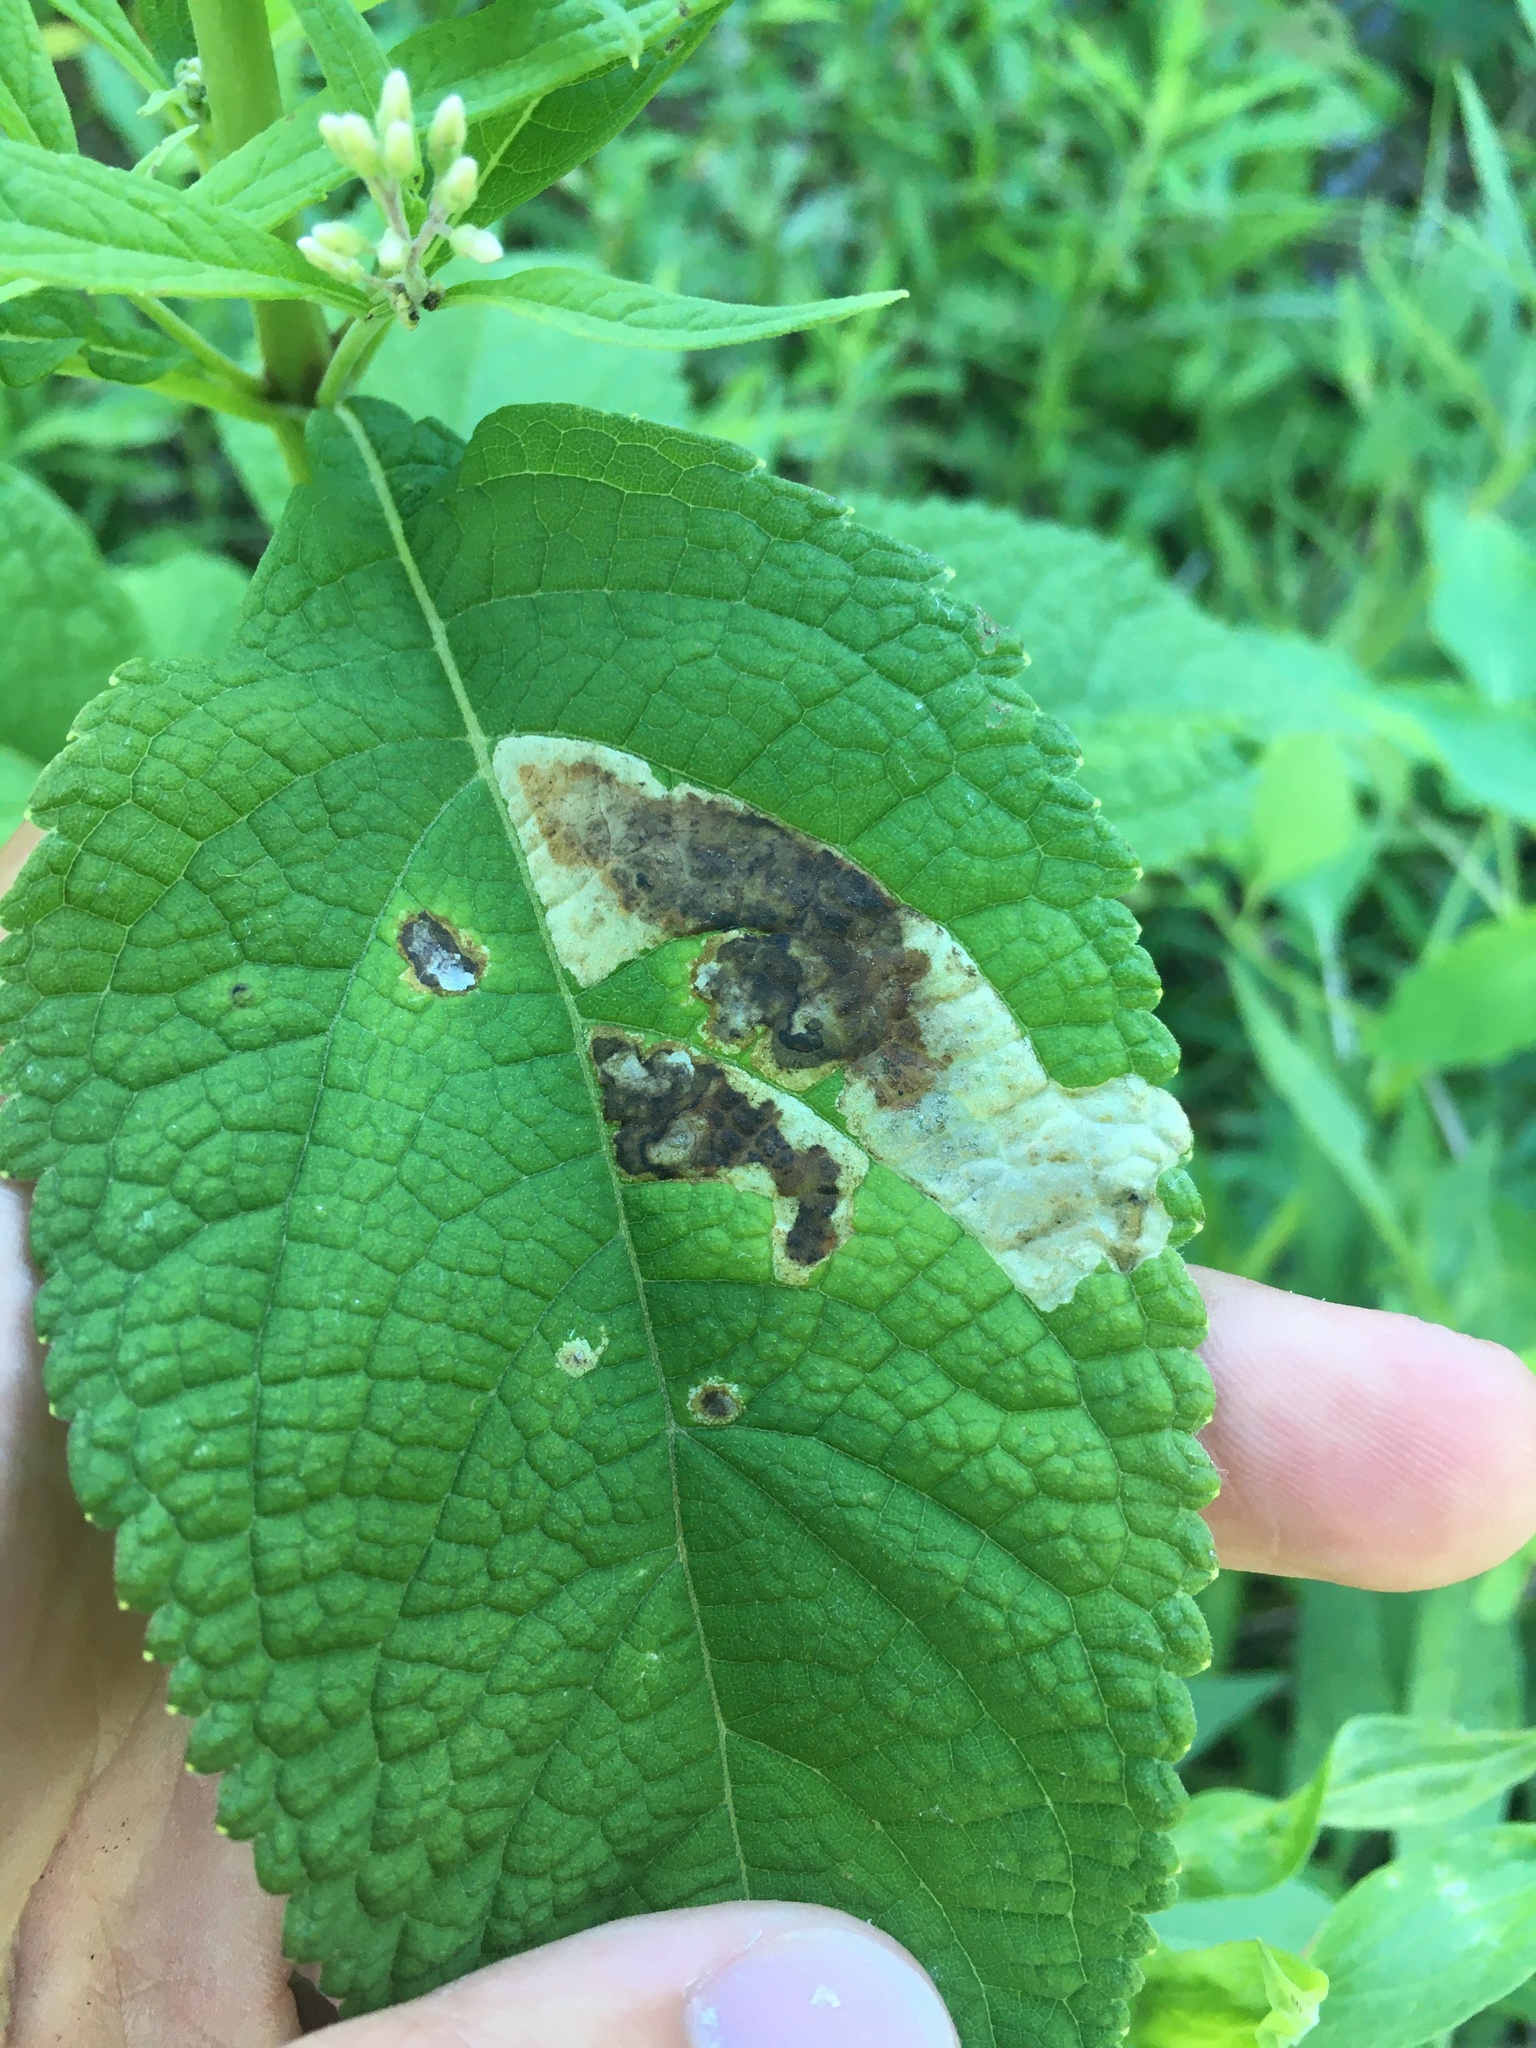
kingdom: Animalia
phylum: Arthropoda
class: Insecta
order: Diptera
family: Agromyzidae
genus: Calycomyza
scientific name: Calycomyza flavinotum
